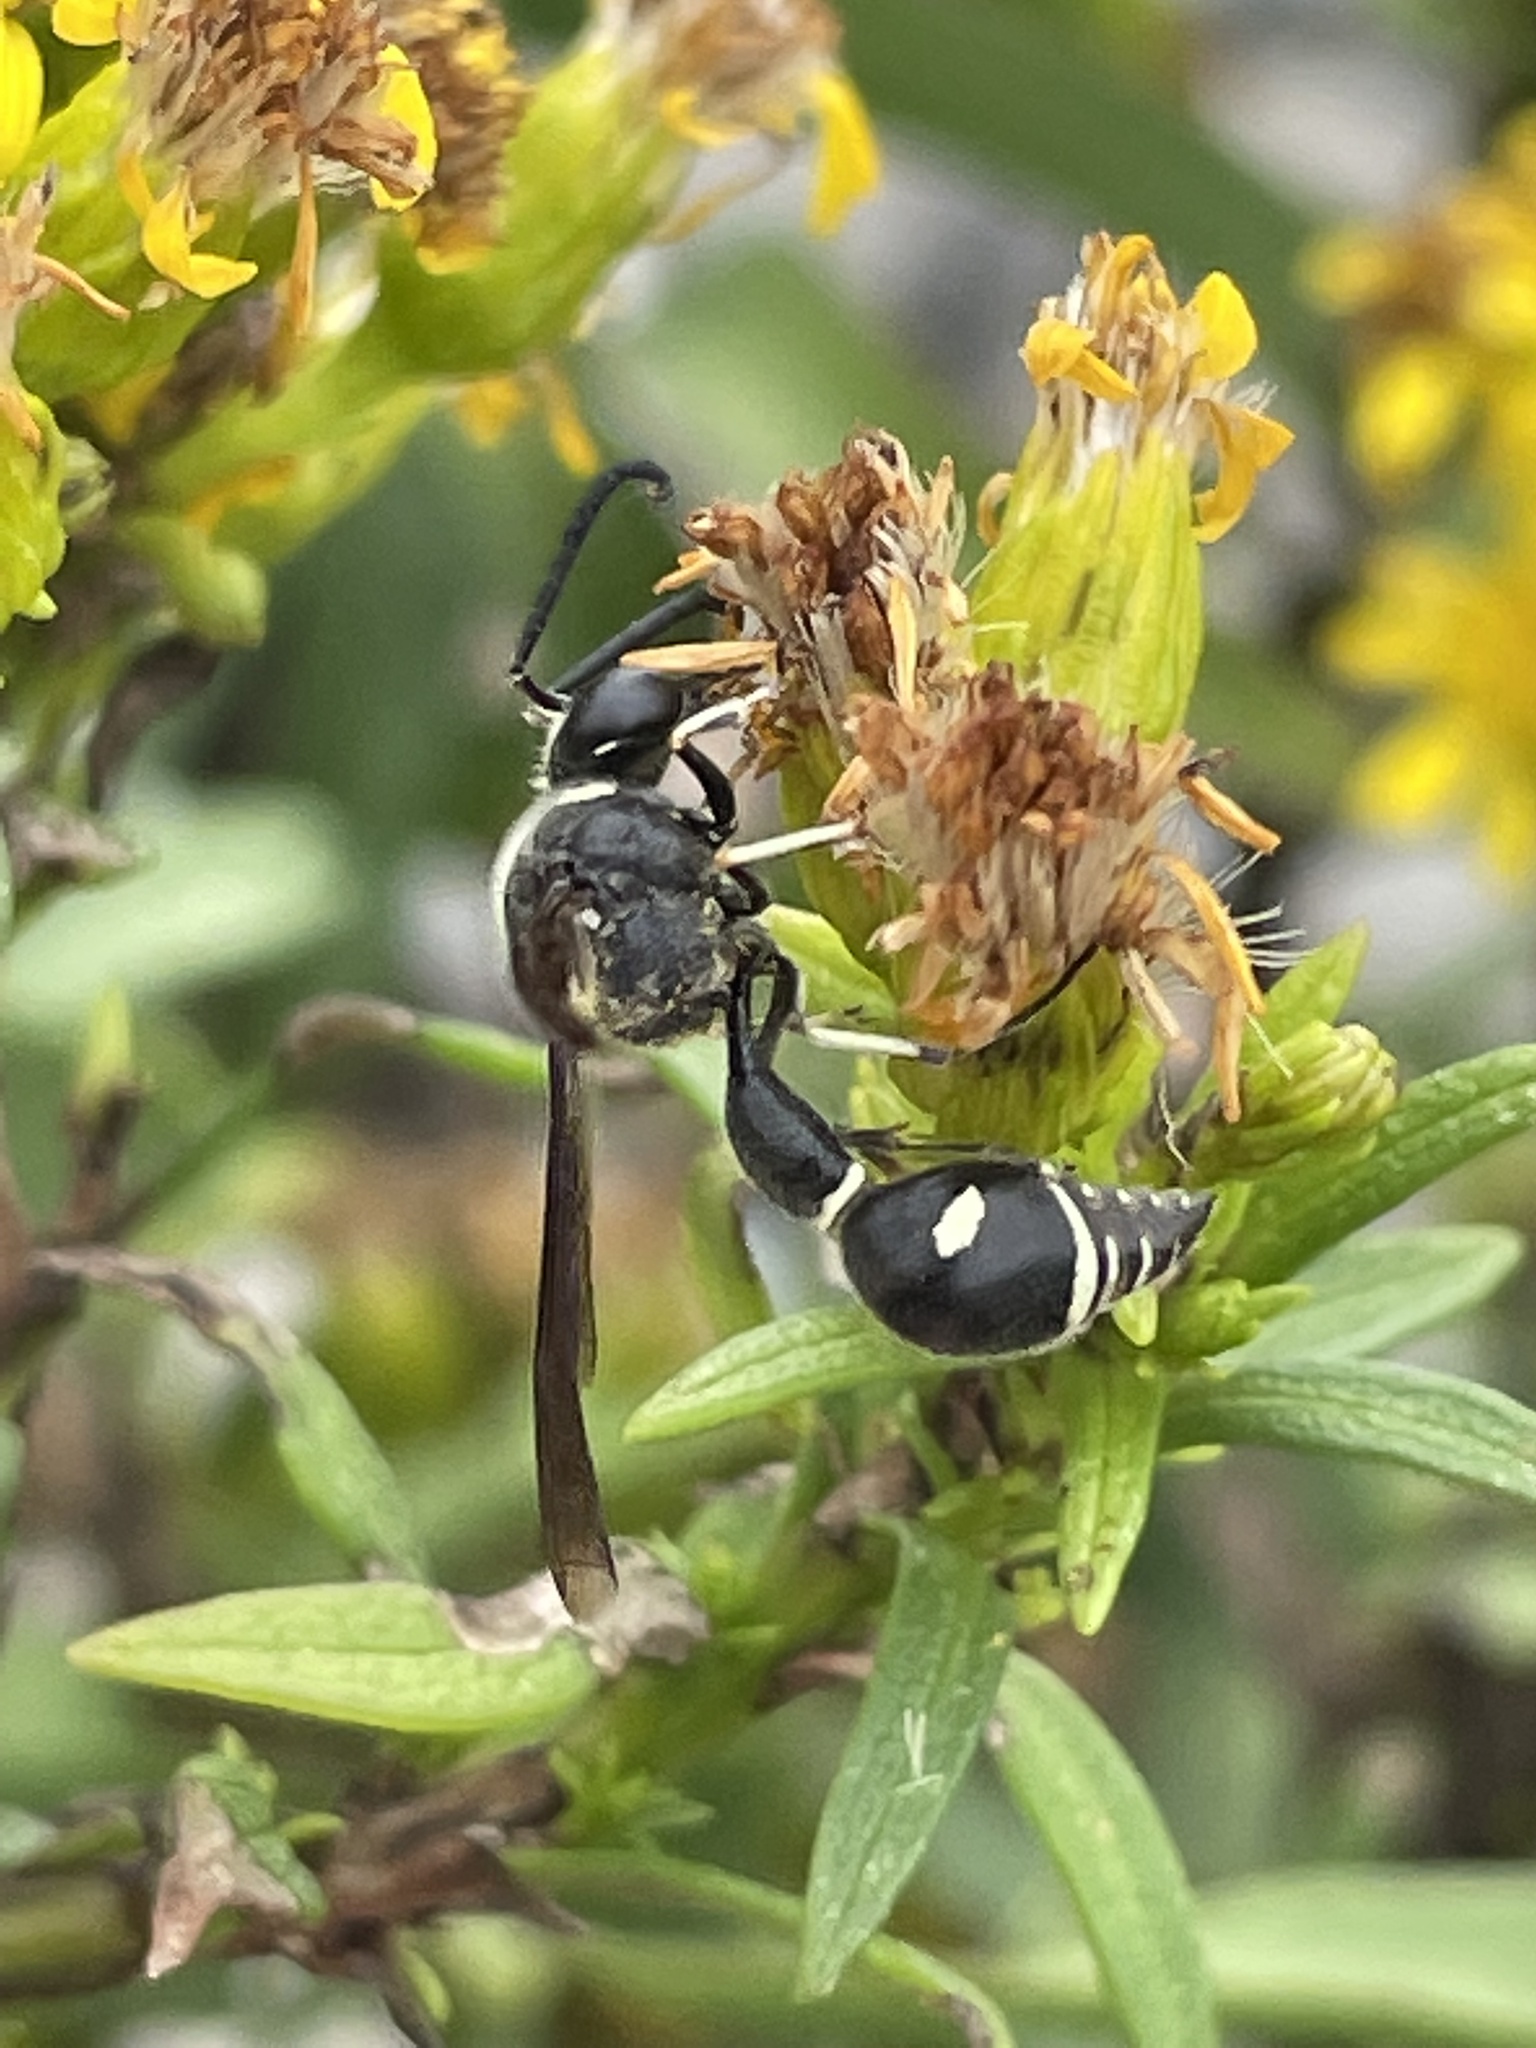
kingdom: Animalia
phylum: Arthropoda
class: Insecta
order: Hymenoptera
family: Vespidae
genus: Eumenes
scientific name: Eumenes fraternus
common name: Fraternal potter wasp
